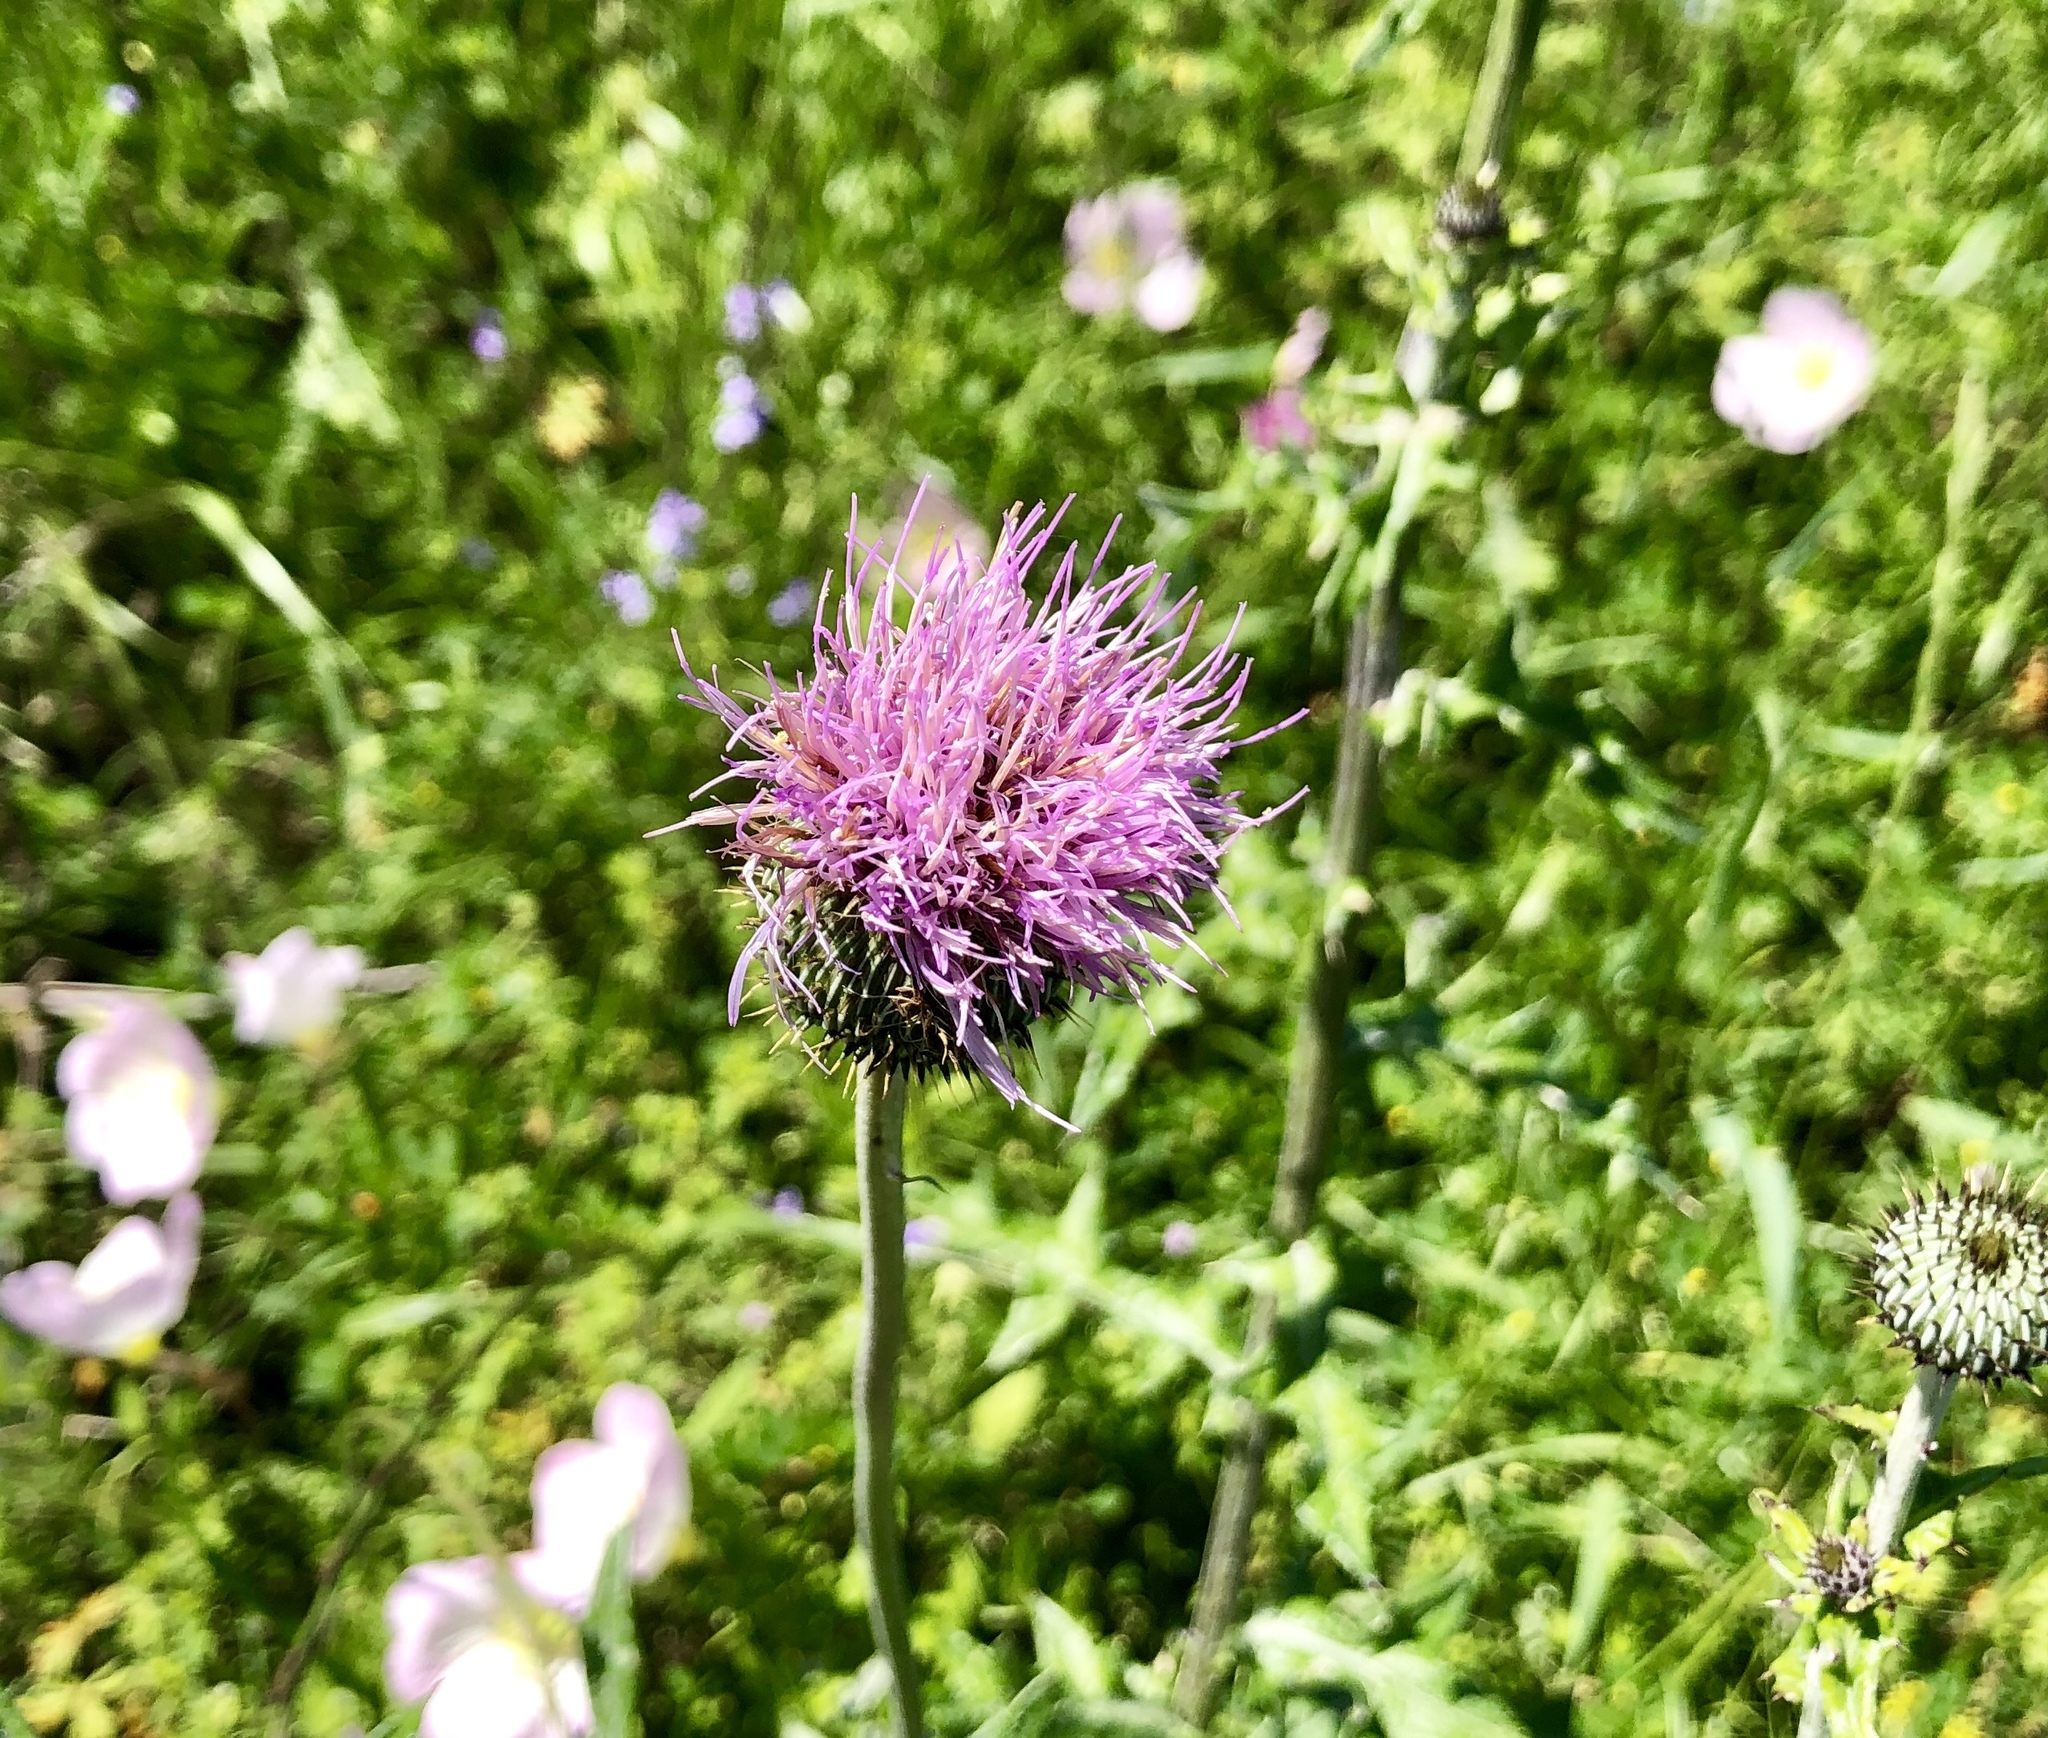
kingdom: Plantae
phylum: Tracheophyta
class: Magnoliopsida
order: Asterales
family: Asteraceae
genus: Cirsium
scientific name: Cirsium texanum
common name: Texas purple thistle
